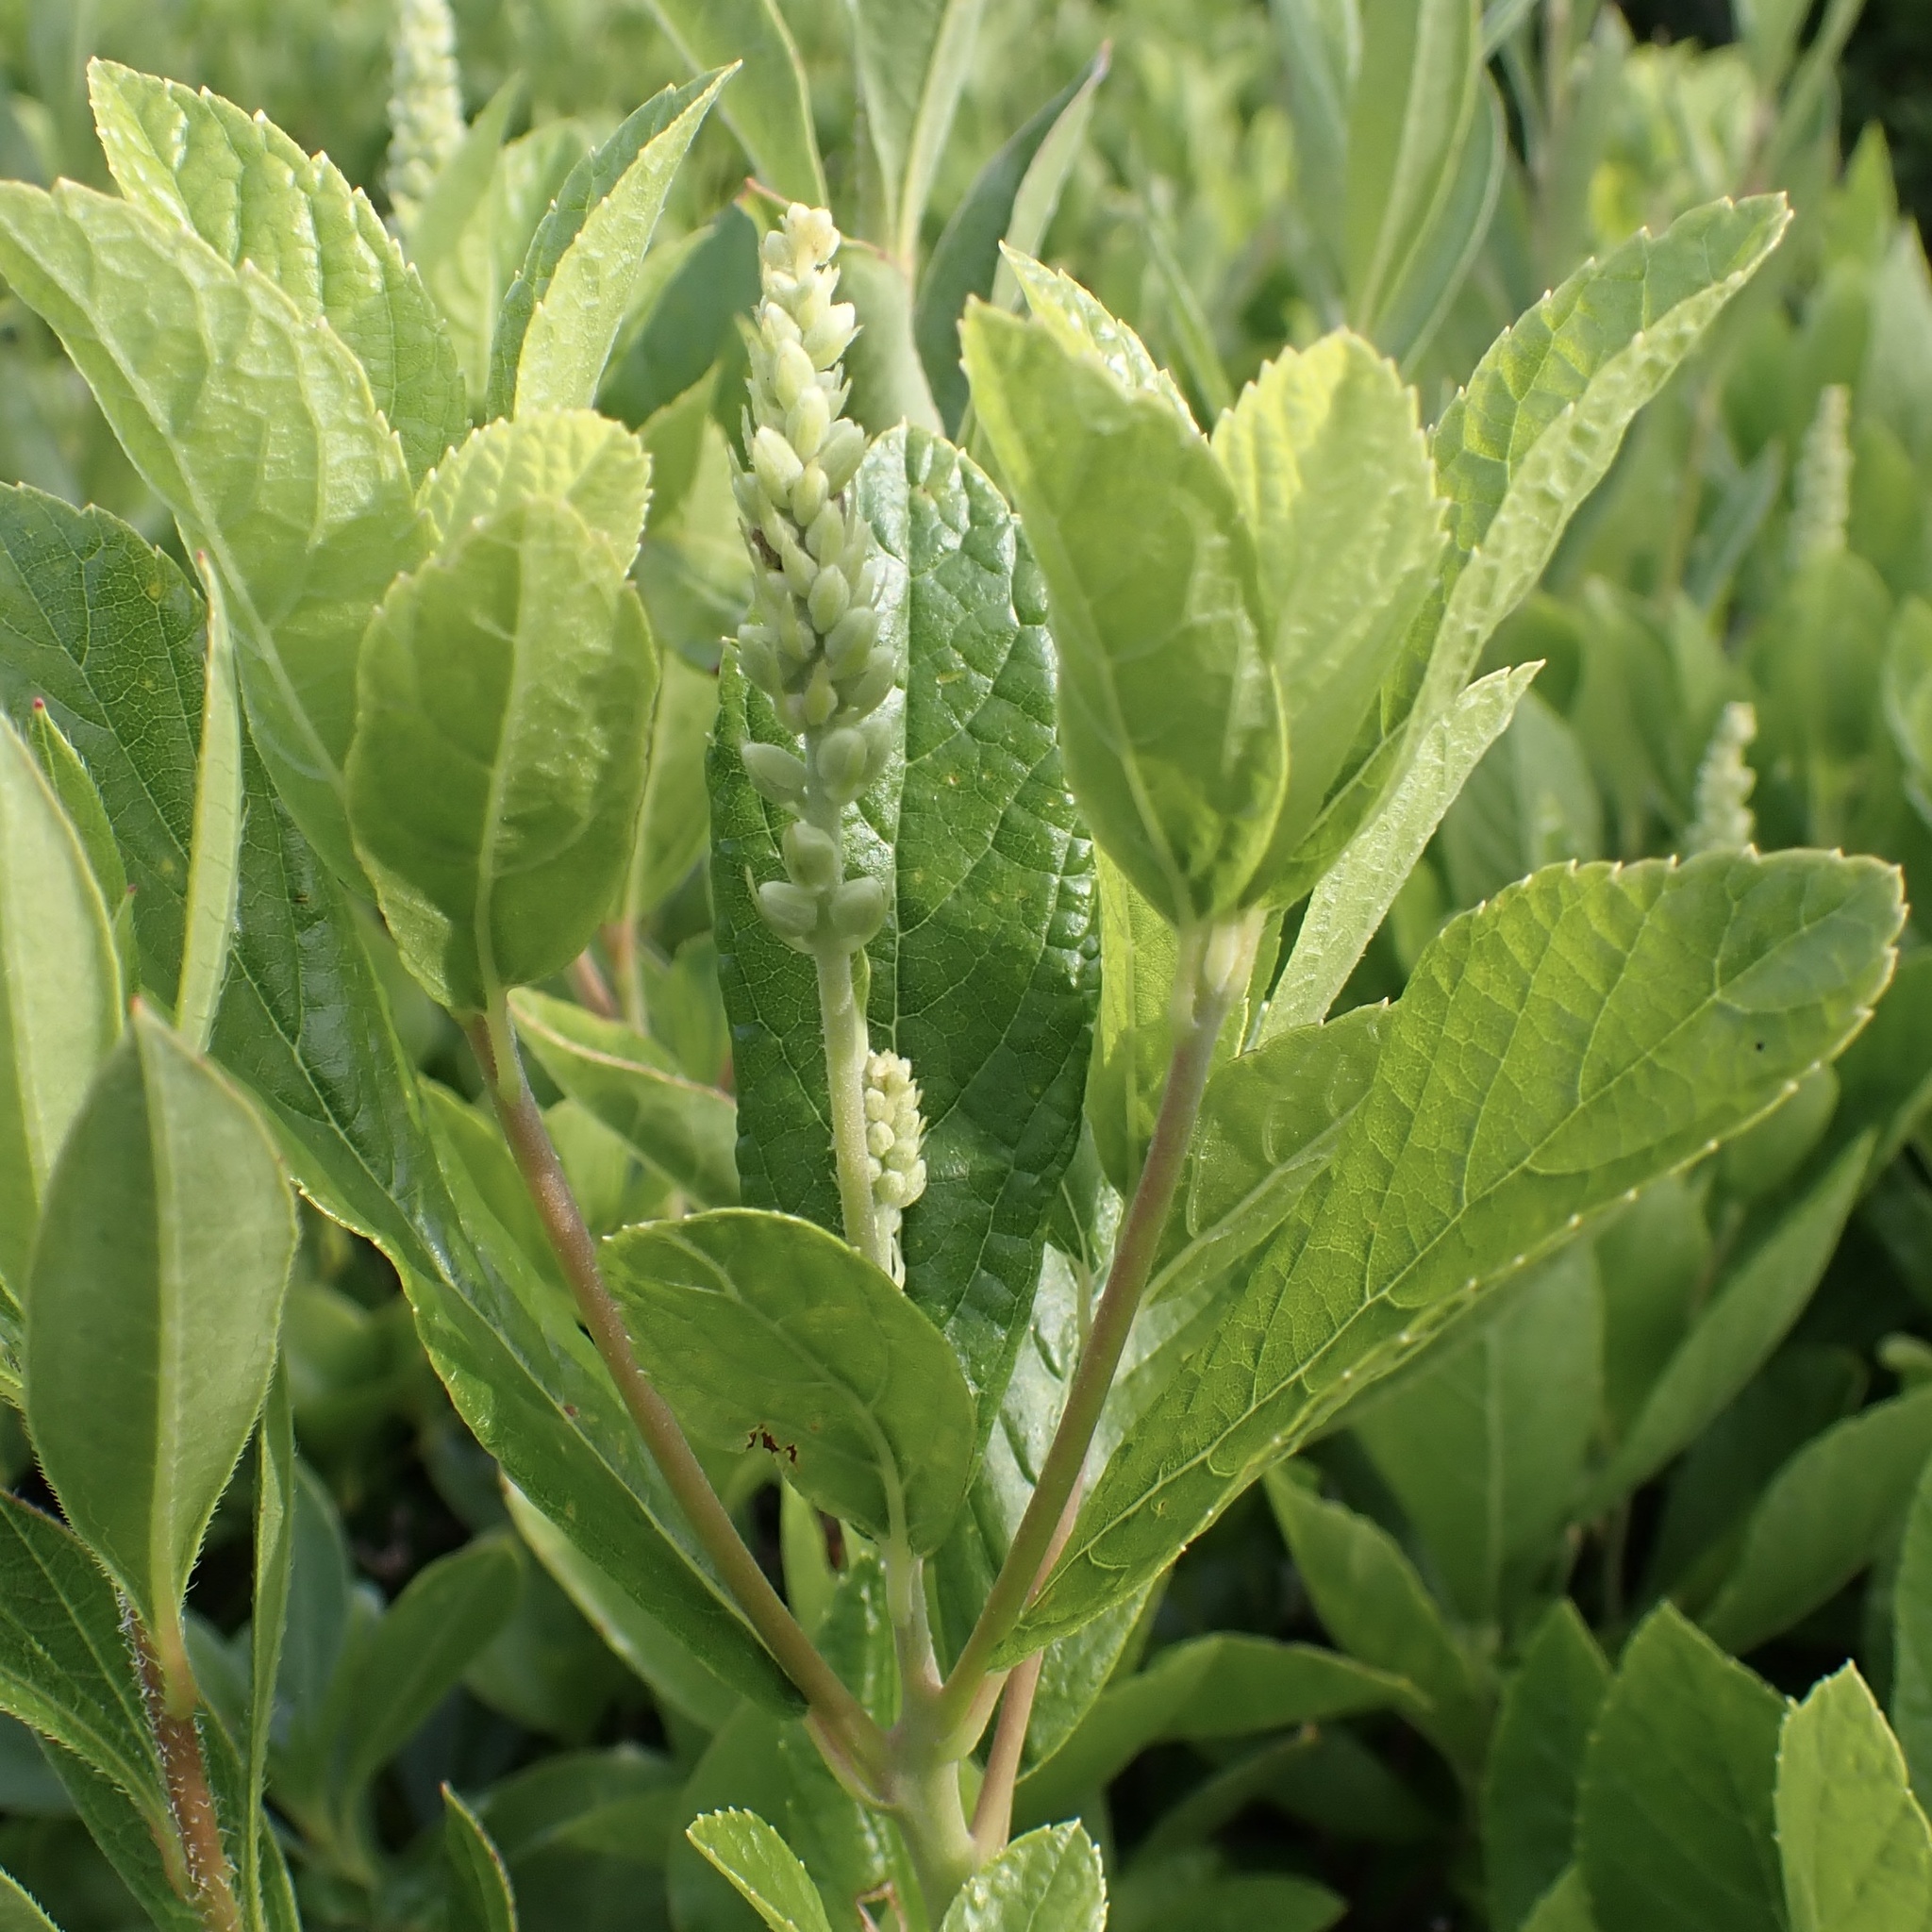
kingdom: Plantae
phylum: Tracheophyta
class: Magnoliopsida
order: Ericales
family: Clethraceae
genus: Clethra
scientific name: Clethra alnifolia
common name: Sweet pepperbush
